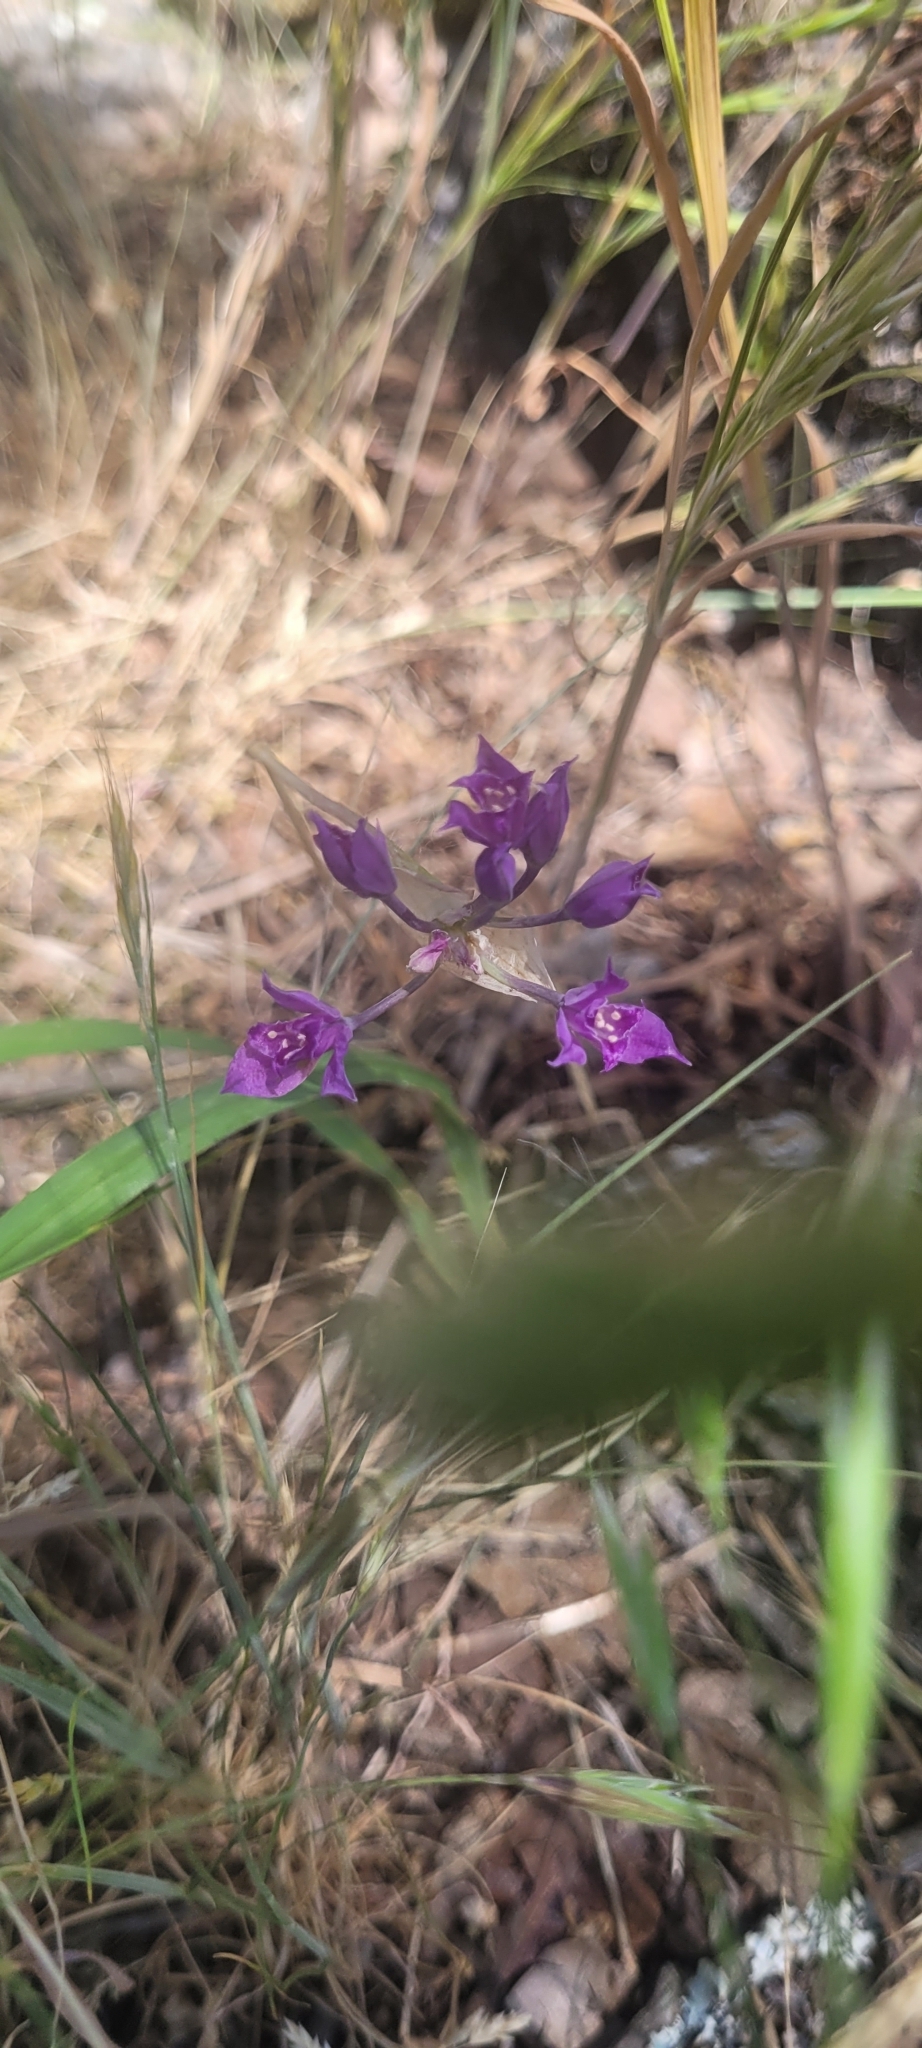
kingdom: Plantae
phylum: Tracheophyta
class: Liliopsida
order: Asparagales
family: Amaryllidaceae
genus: Allium
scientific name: Allium acuminatum
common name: Hooker's onion
